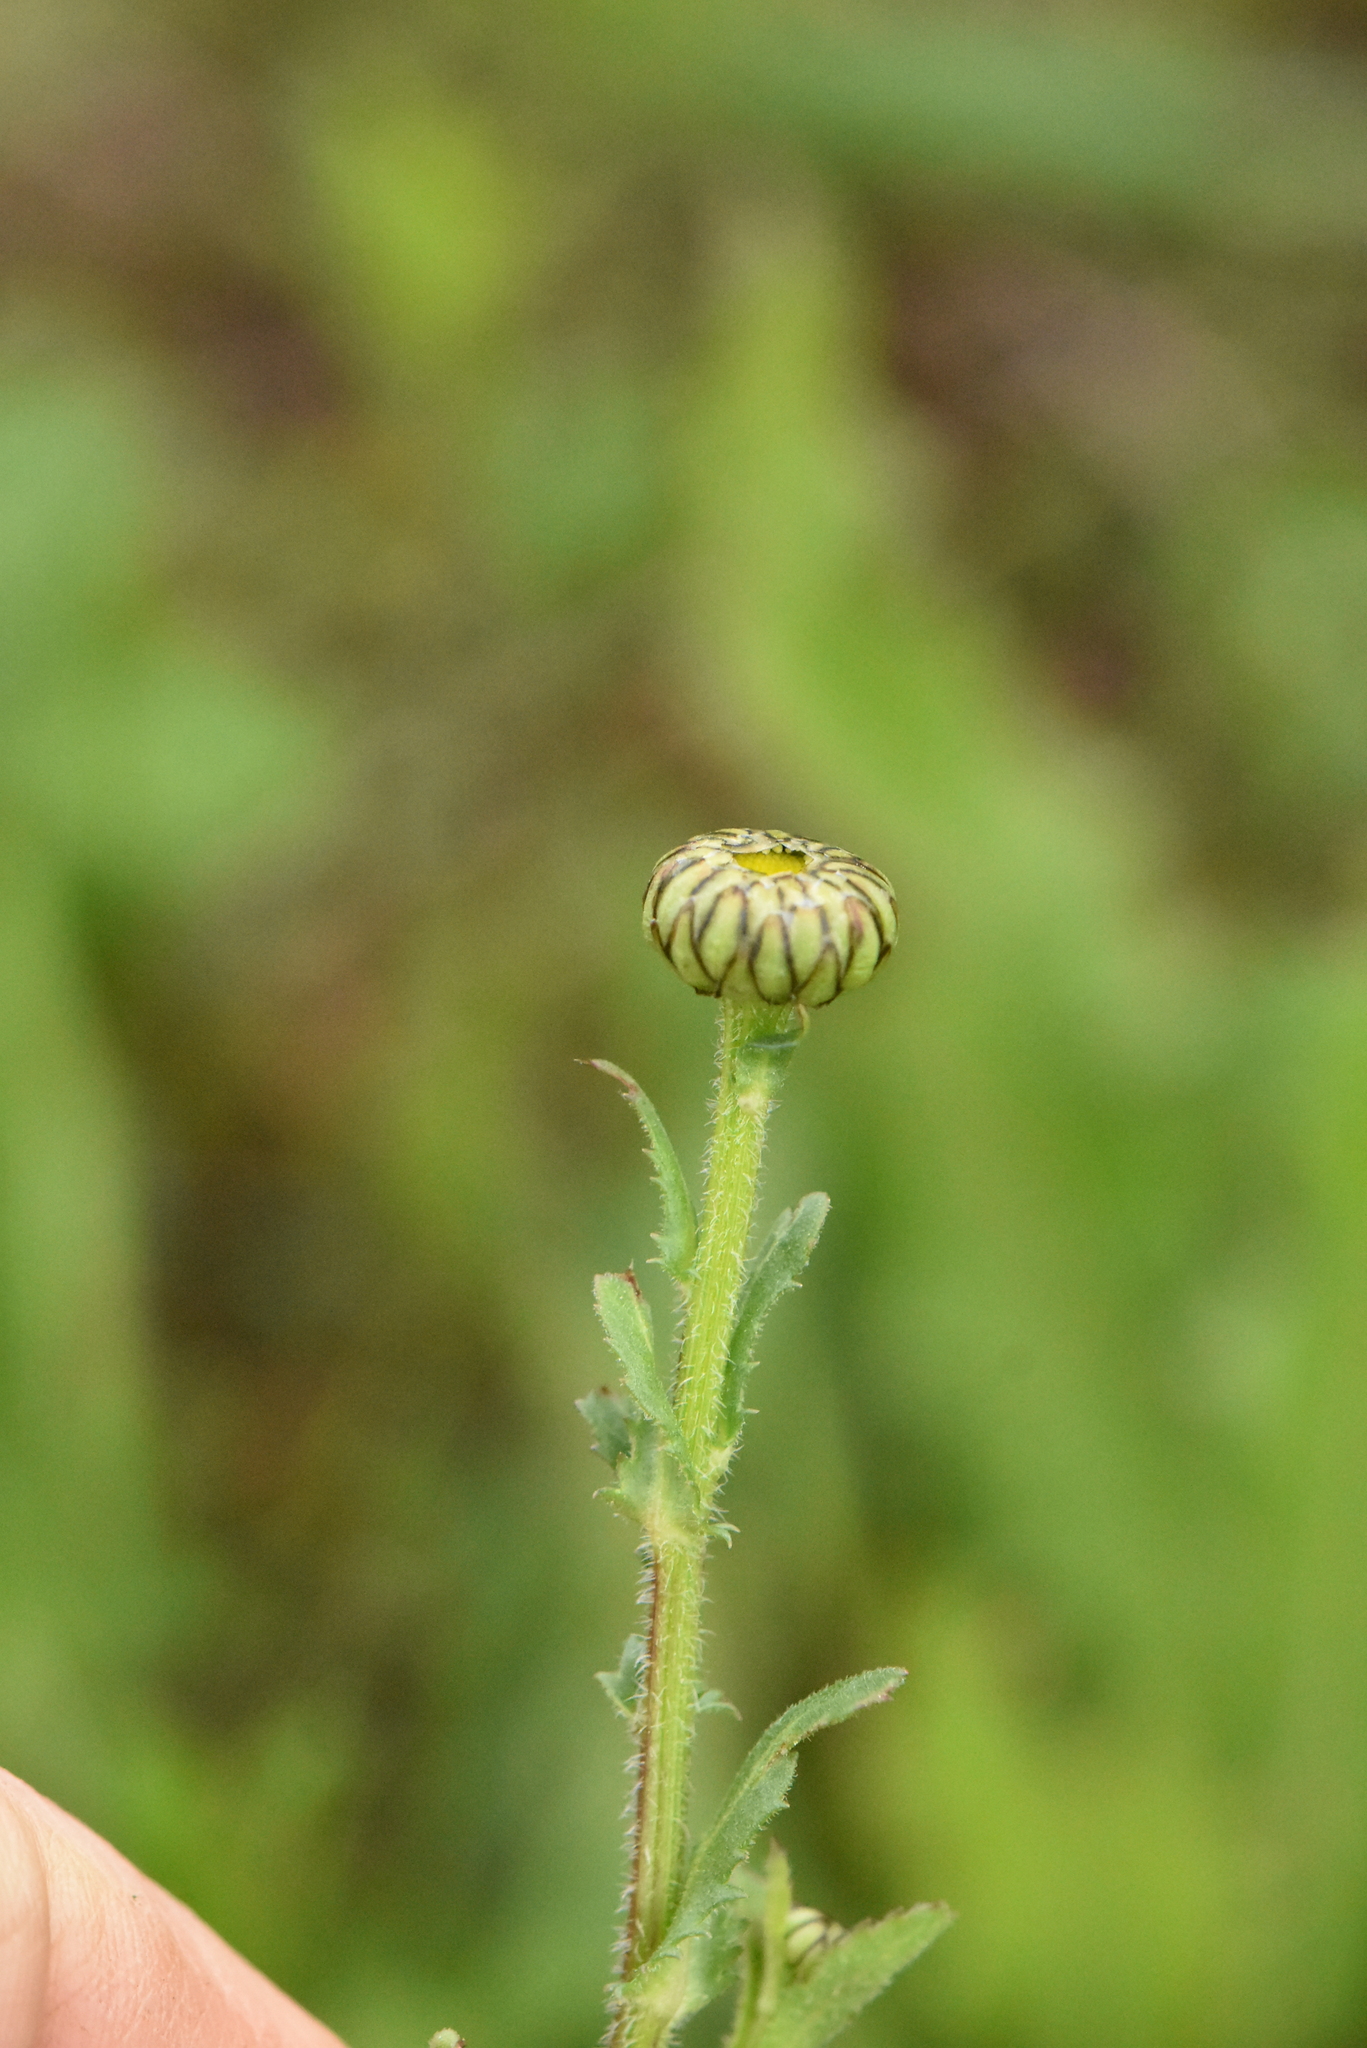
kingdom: Plantae
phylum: Tracheophyta
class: Magnoliopsida
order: Asterales
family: Asteraceae
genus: Leucanthemum
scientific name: Leucanthemum vulgare
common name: Oxeye daisy
